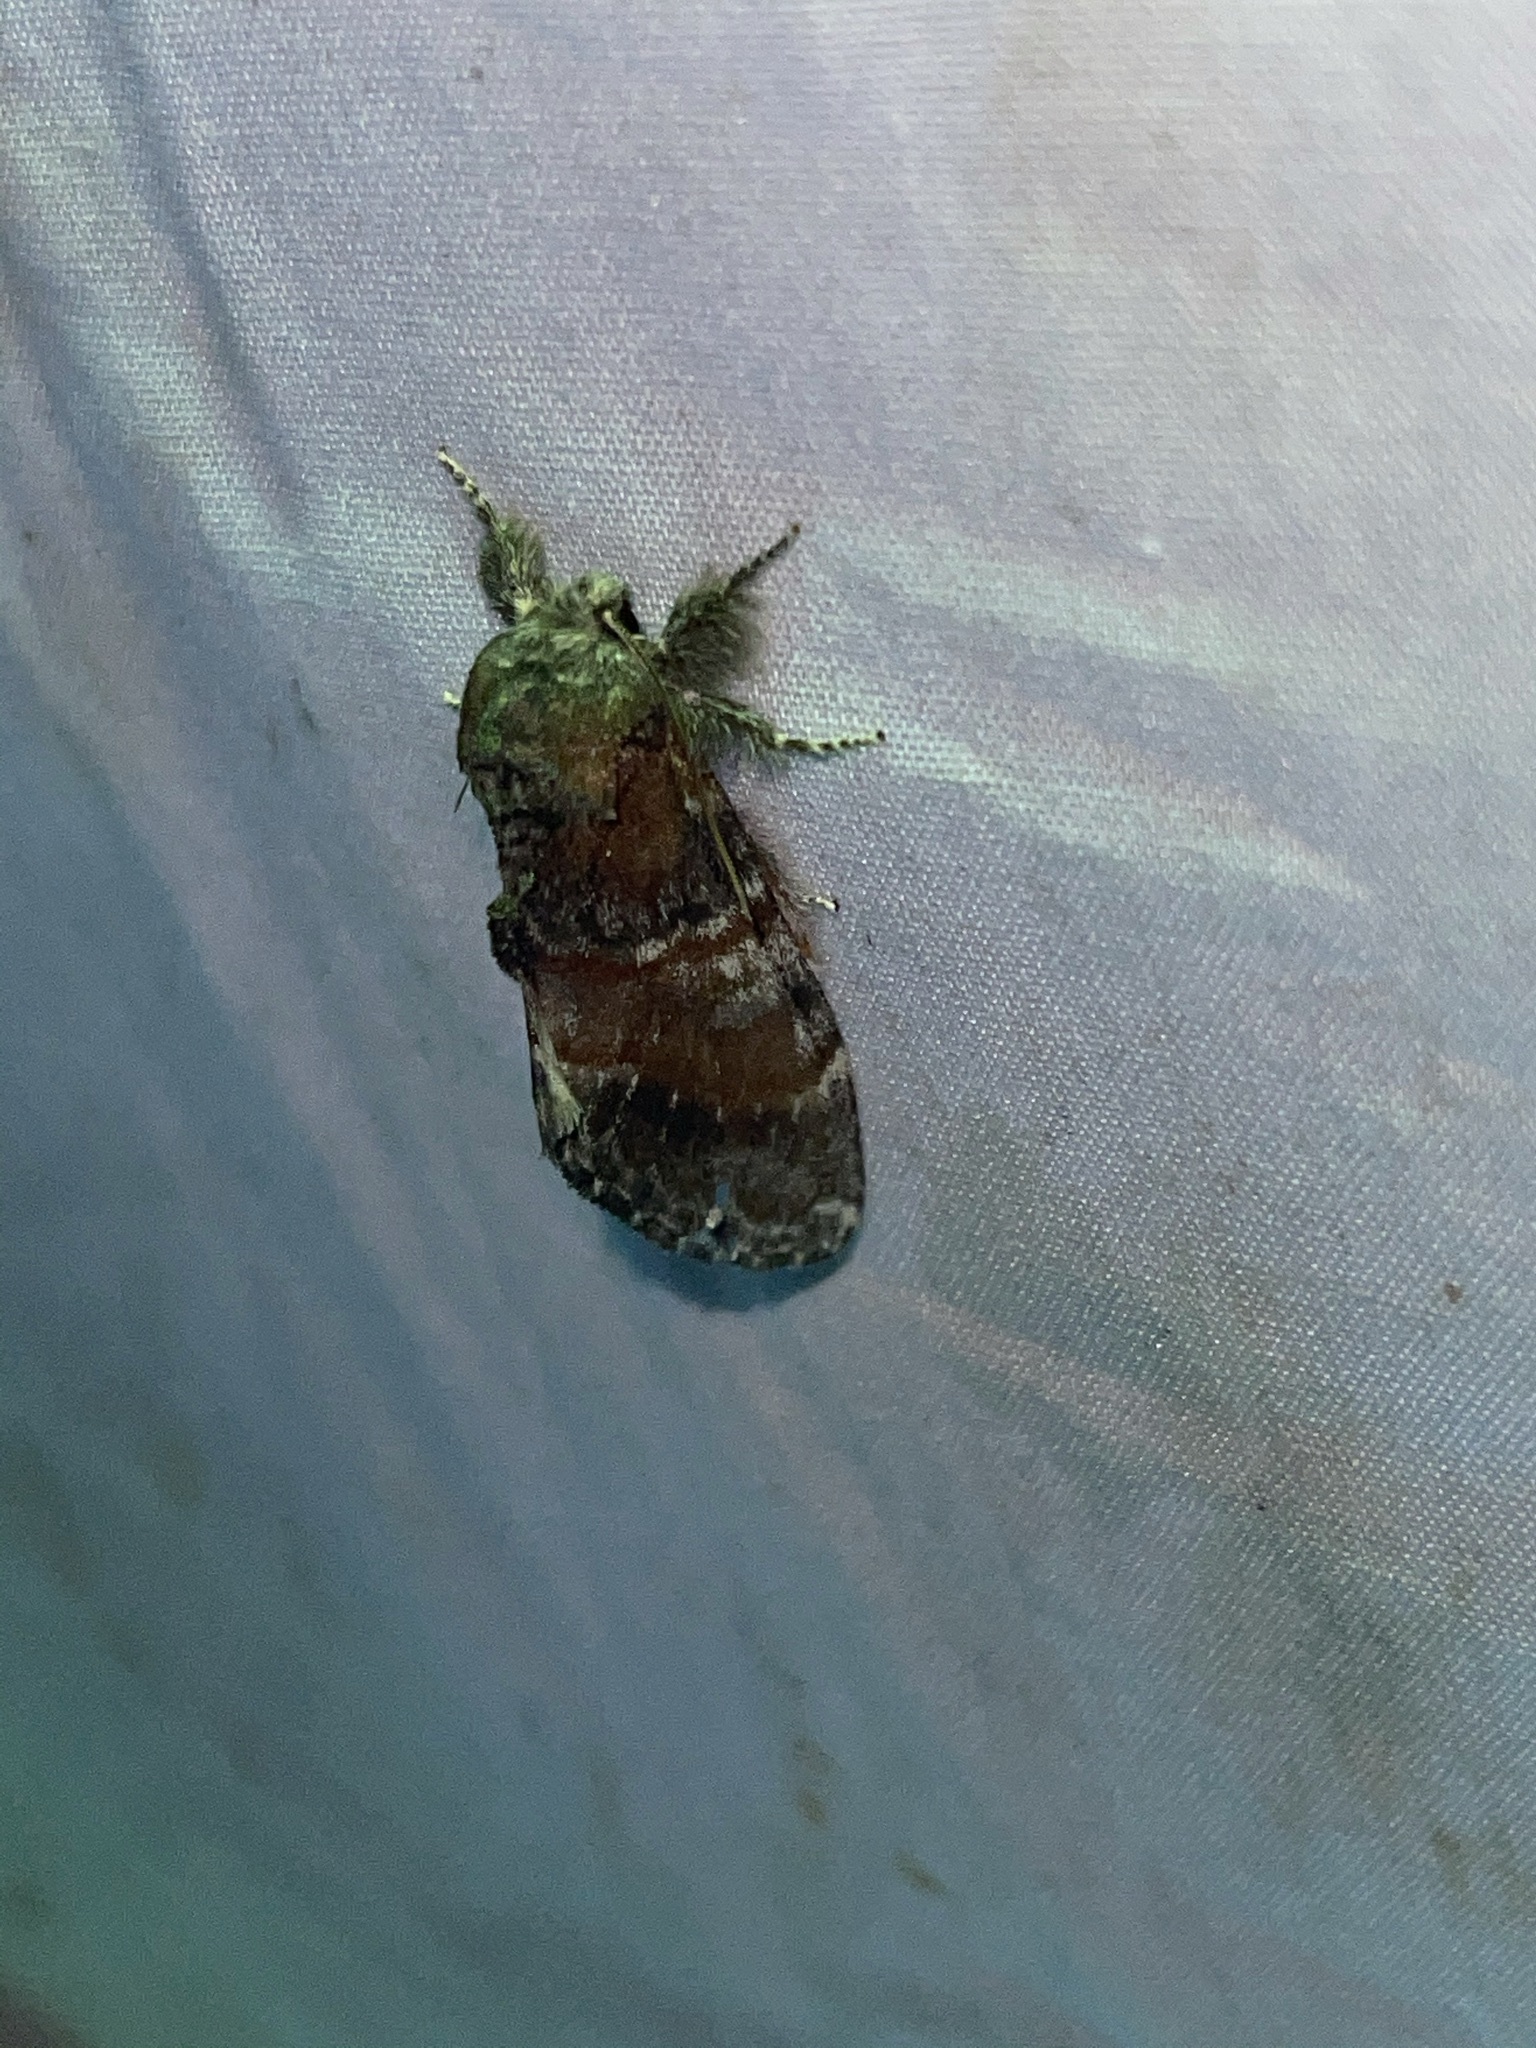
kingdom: Animalia
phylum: Arthropoda
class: Insecta
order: Lepidoptera
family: Notodontidae
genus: Peridea
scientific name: Peridea ferruginea
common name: Chocolate prominent
